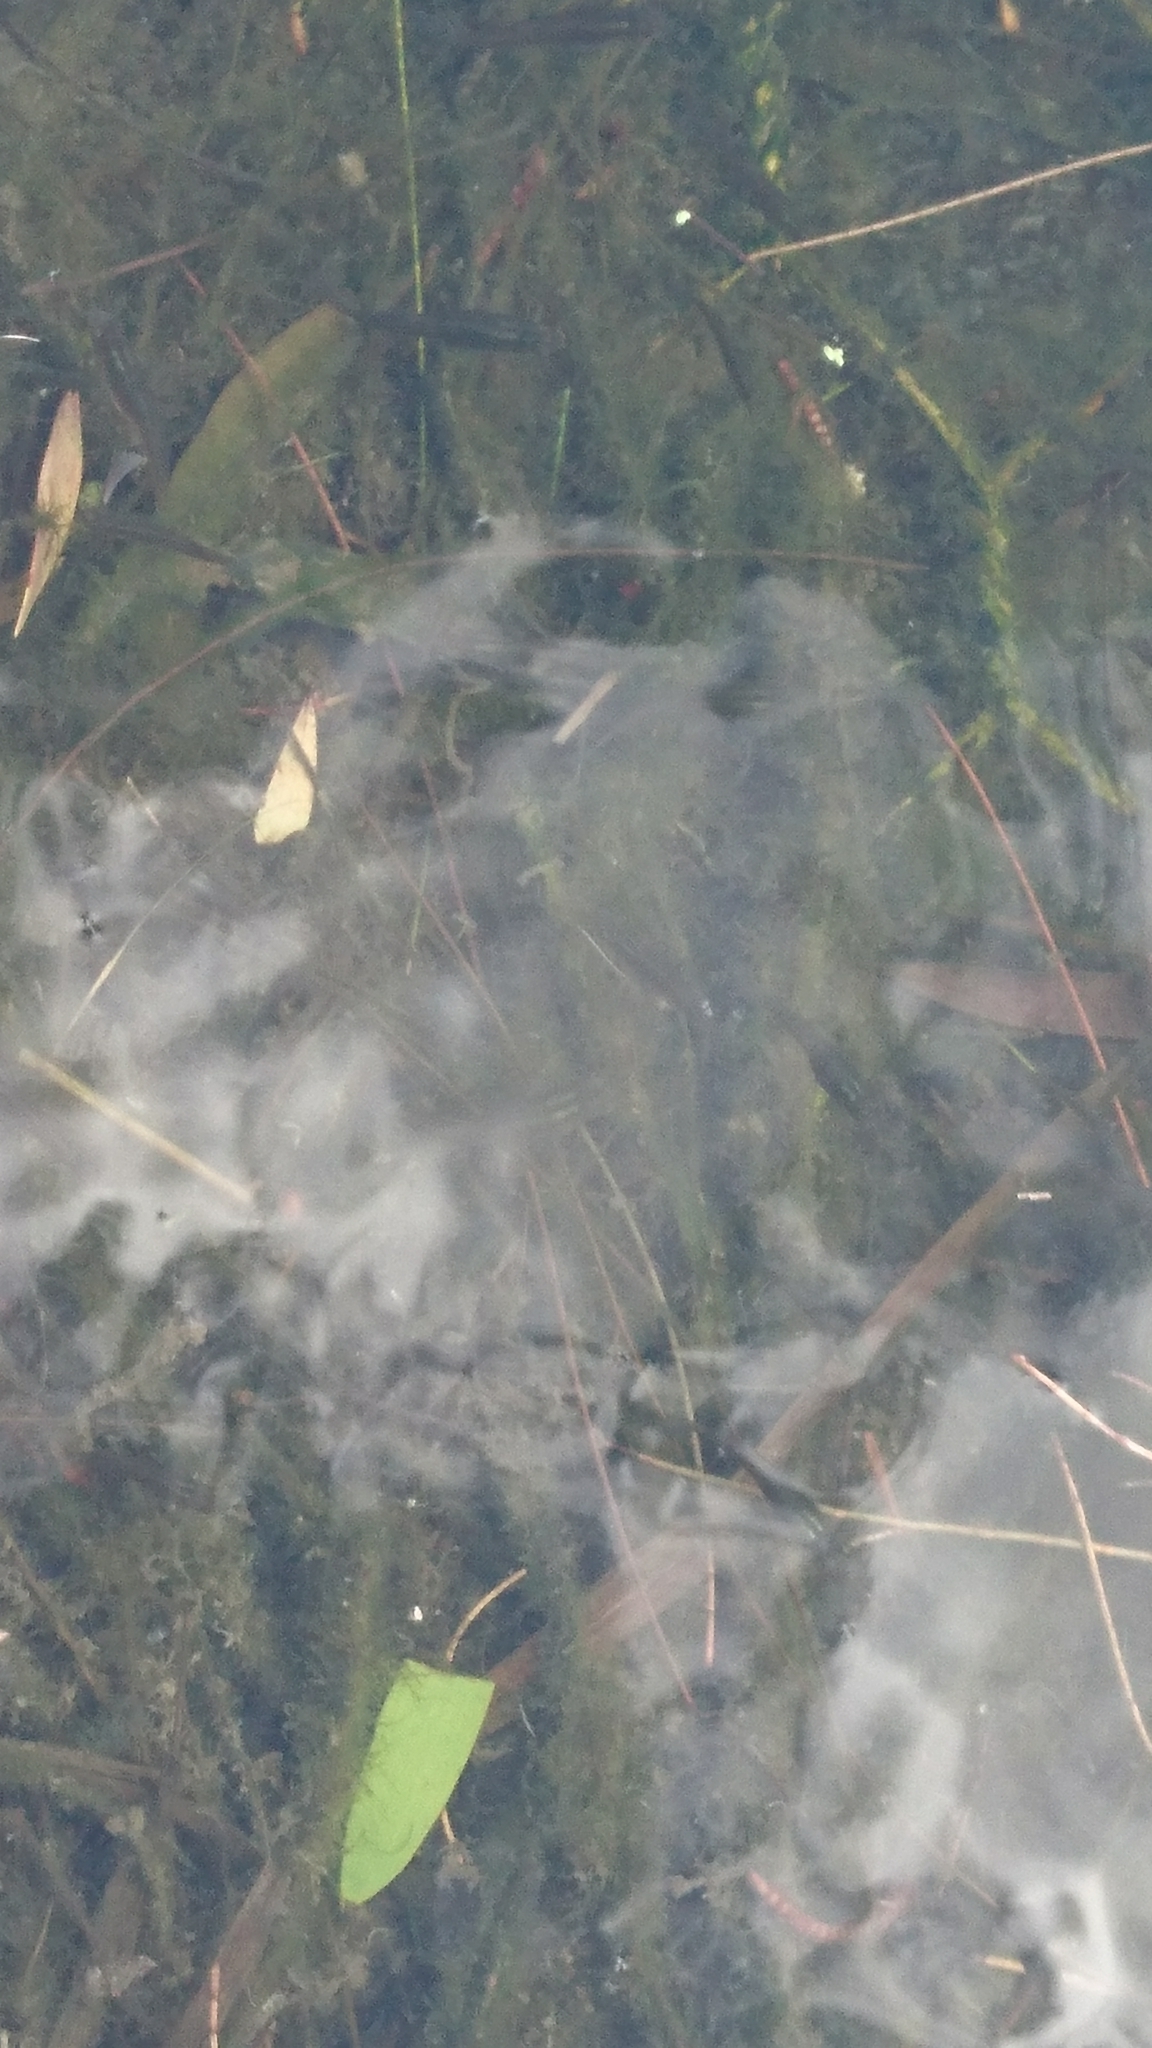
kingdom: Animalia
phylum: Chordata
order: Cyprinodontiformes
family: Poeciliidae
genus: Gambusia
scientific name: Gambusia holbrooki
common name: Eastern mosquitofish
